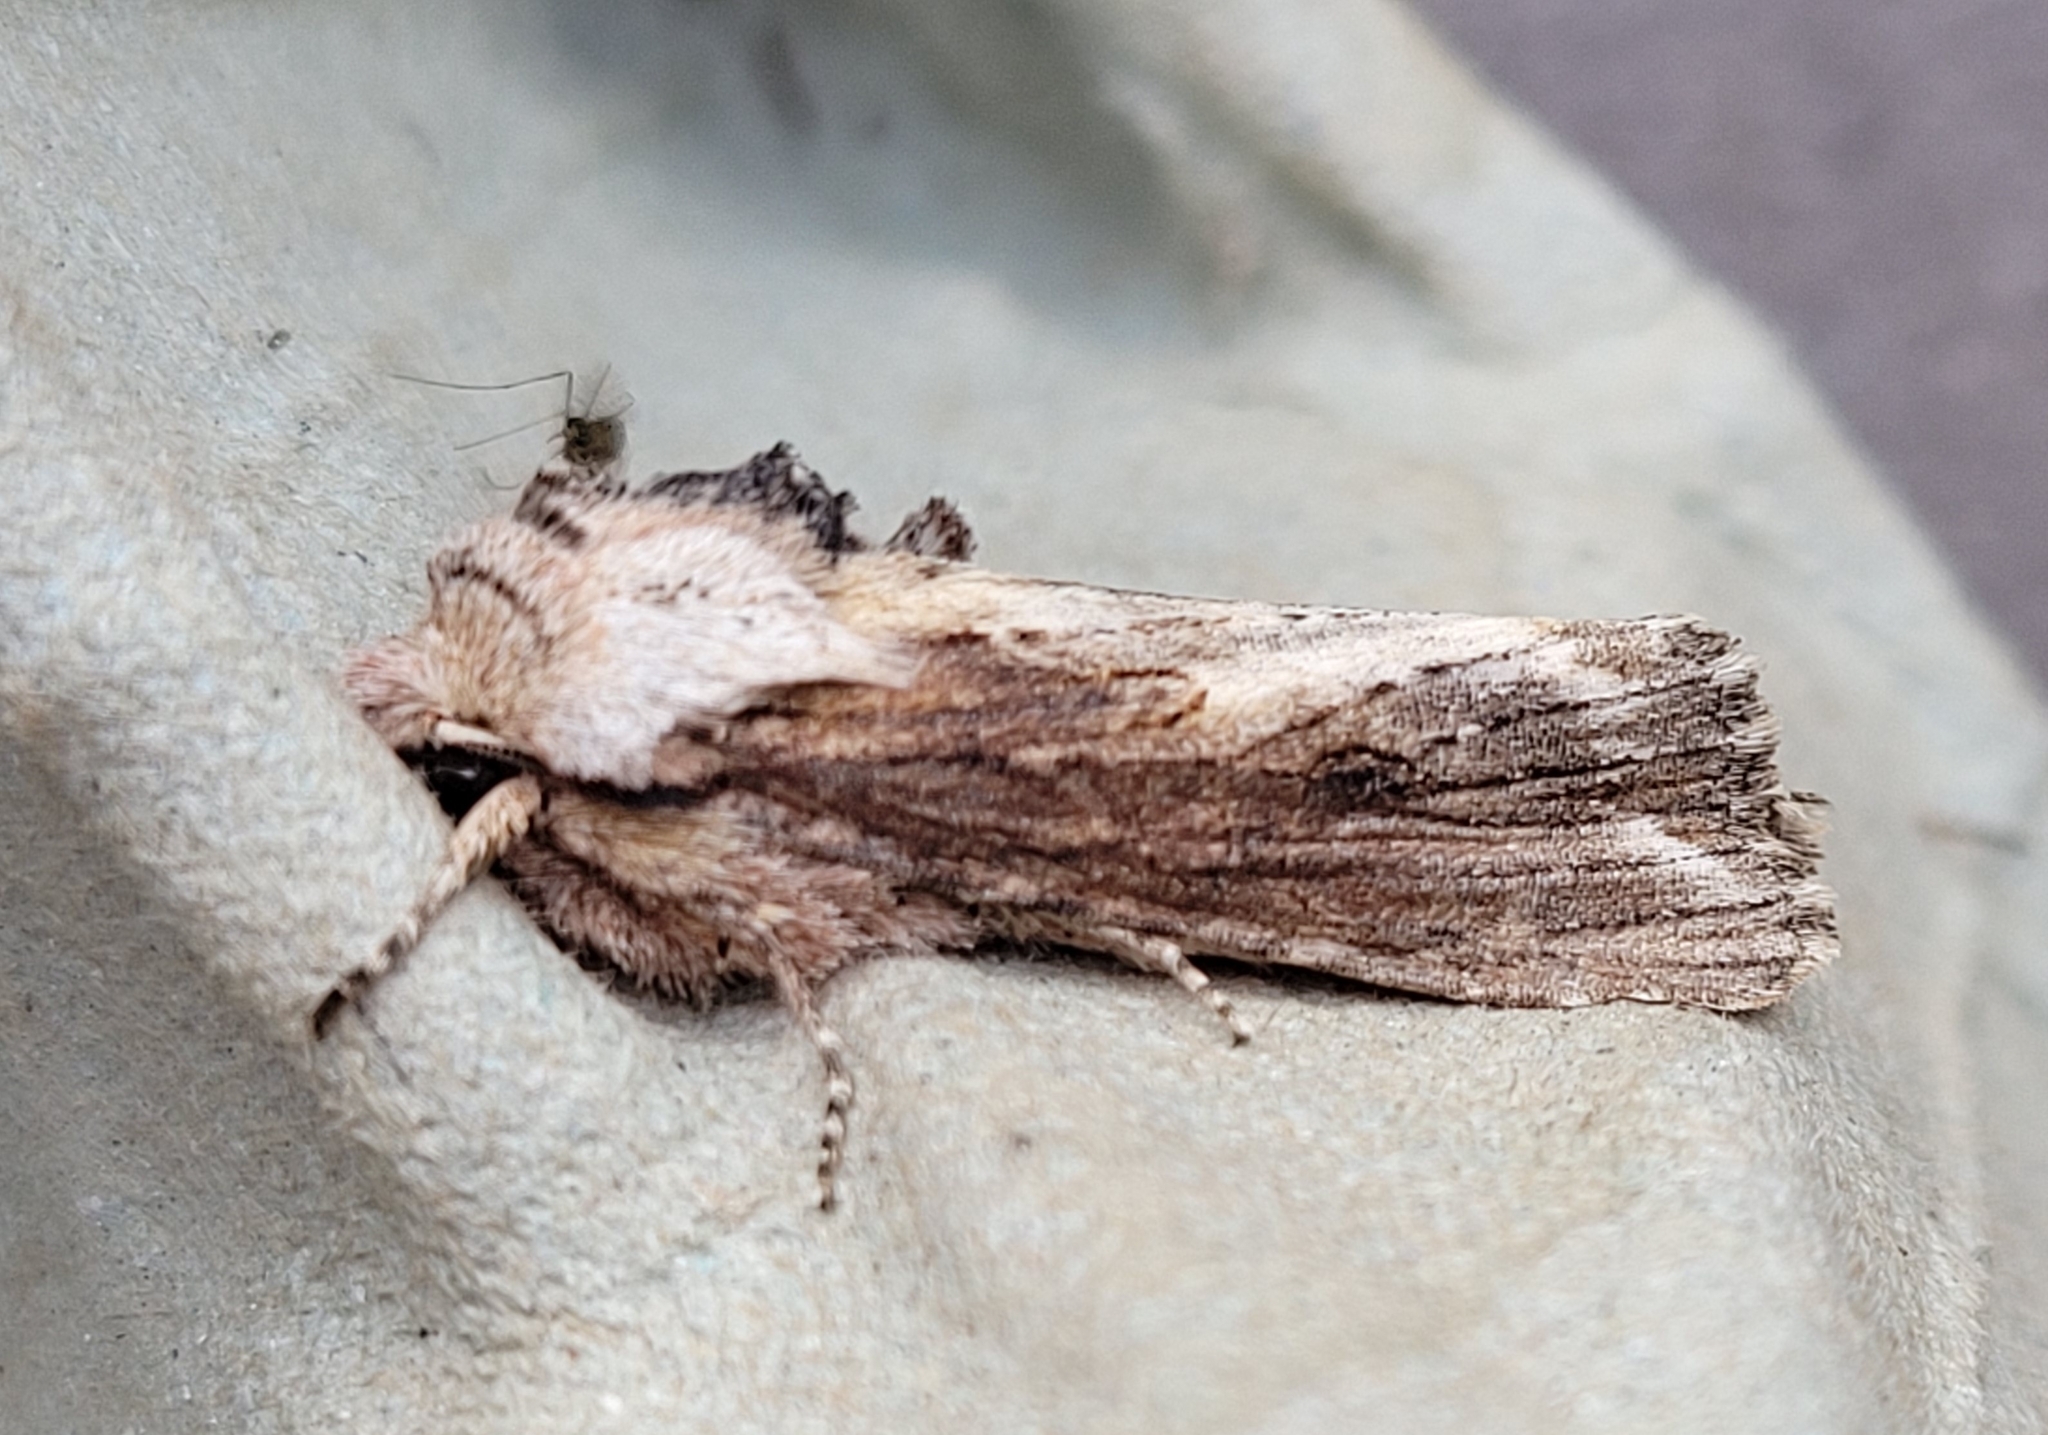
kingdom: Animalia
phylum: Arthropoda
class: Insecta
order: Lepidoptera
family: Noctuidae
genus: Egira
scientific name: Egira conspicillaris
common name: Silver cloud
